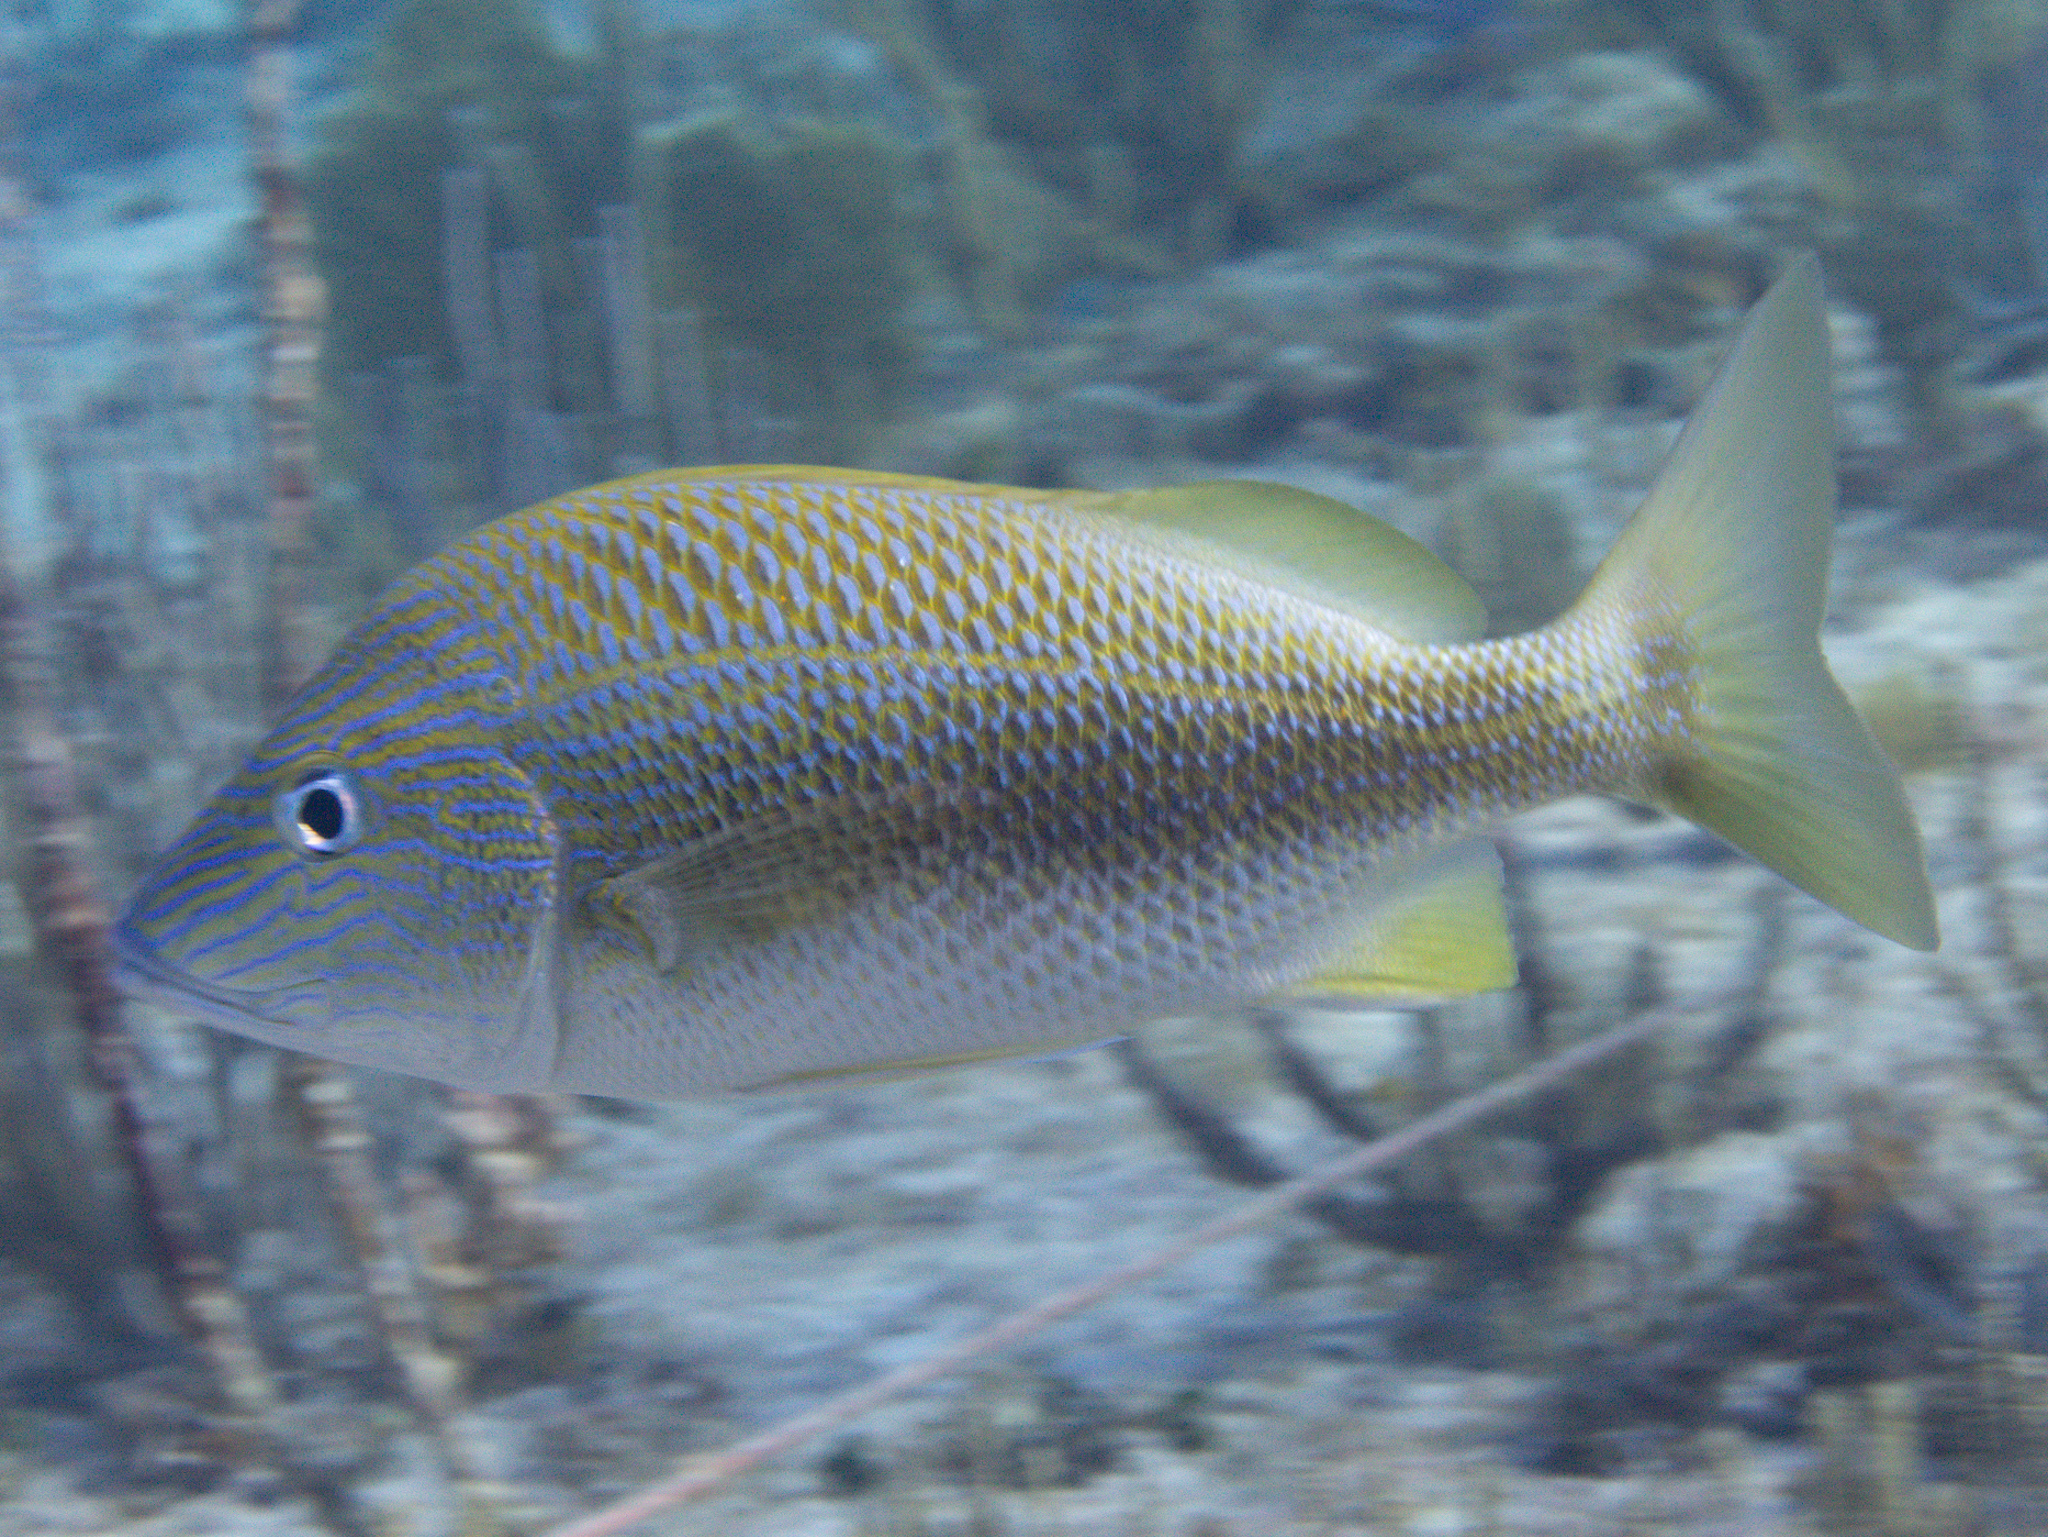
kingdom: Animalia
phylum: Chordata
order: Perciformes
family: Haemulidae
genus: Haemulon
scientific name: Haemulon plumierii
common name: White grunt
